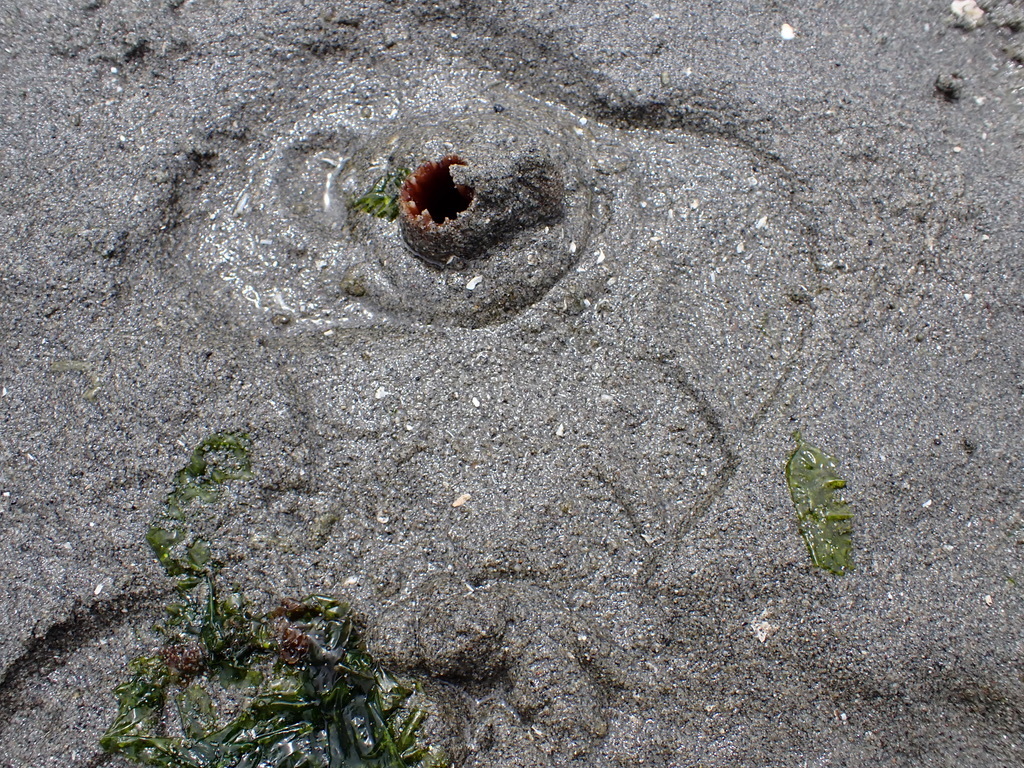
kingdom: Animalia
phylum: Mollusca
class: Bivalvia
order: Myida
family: Pholadidae
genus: Zirfaea
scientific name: Zirfaea pilsbryi
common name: Rough piddock
